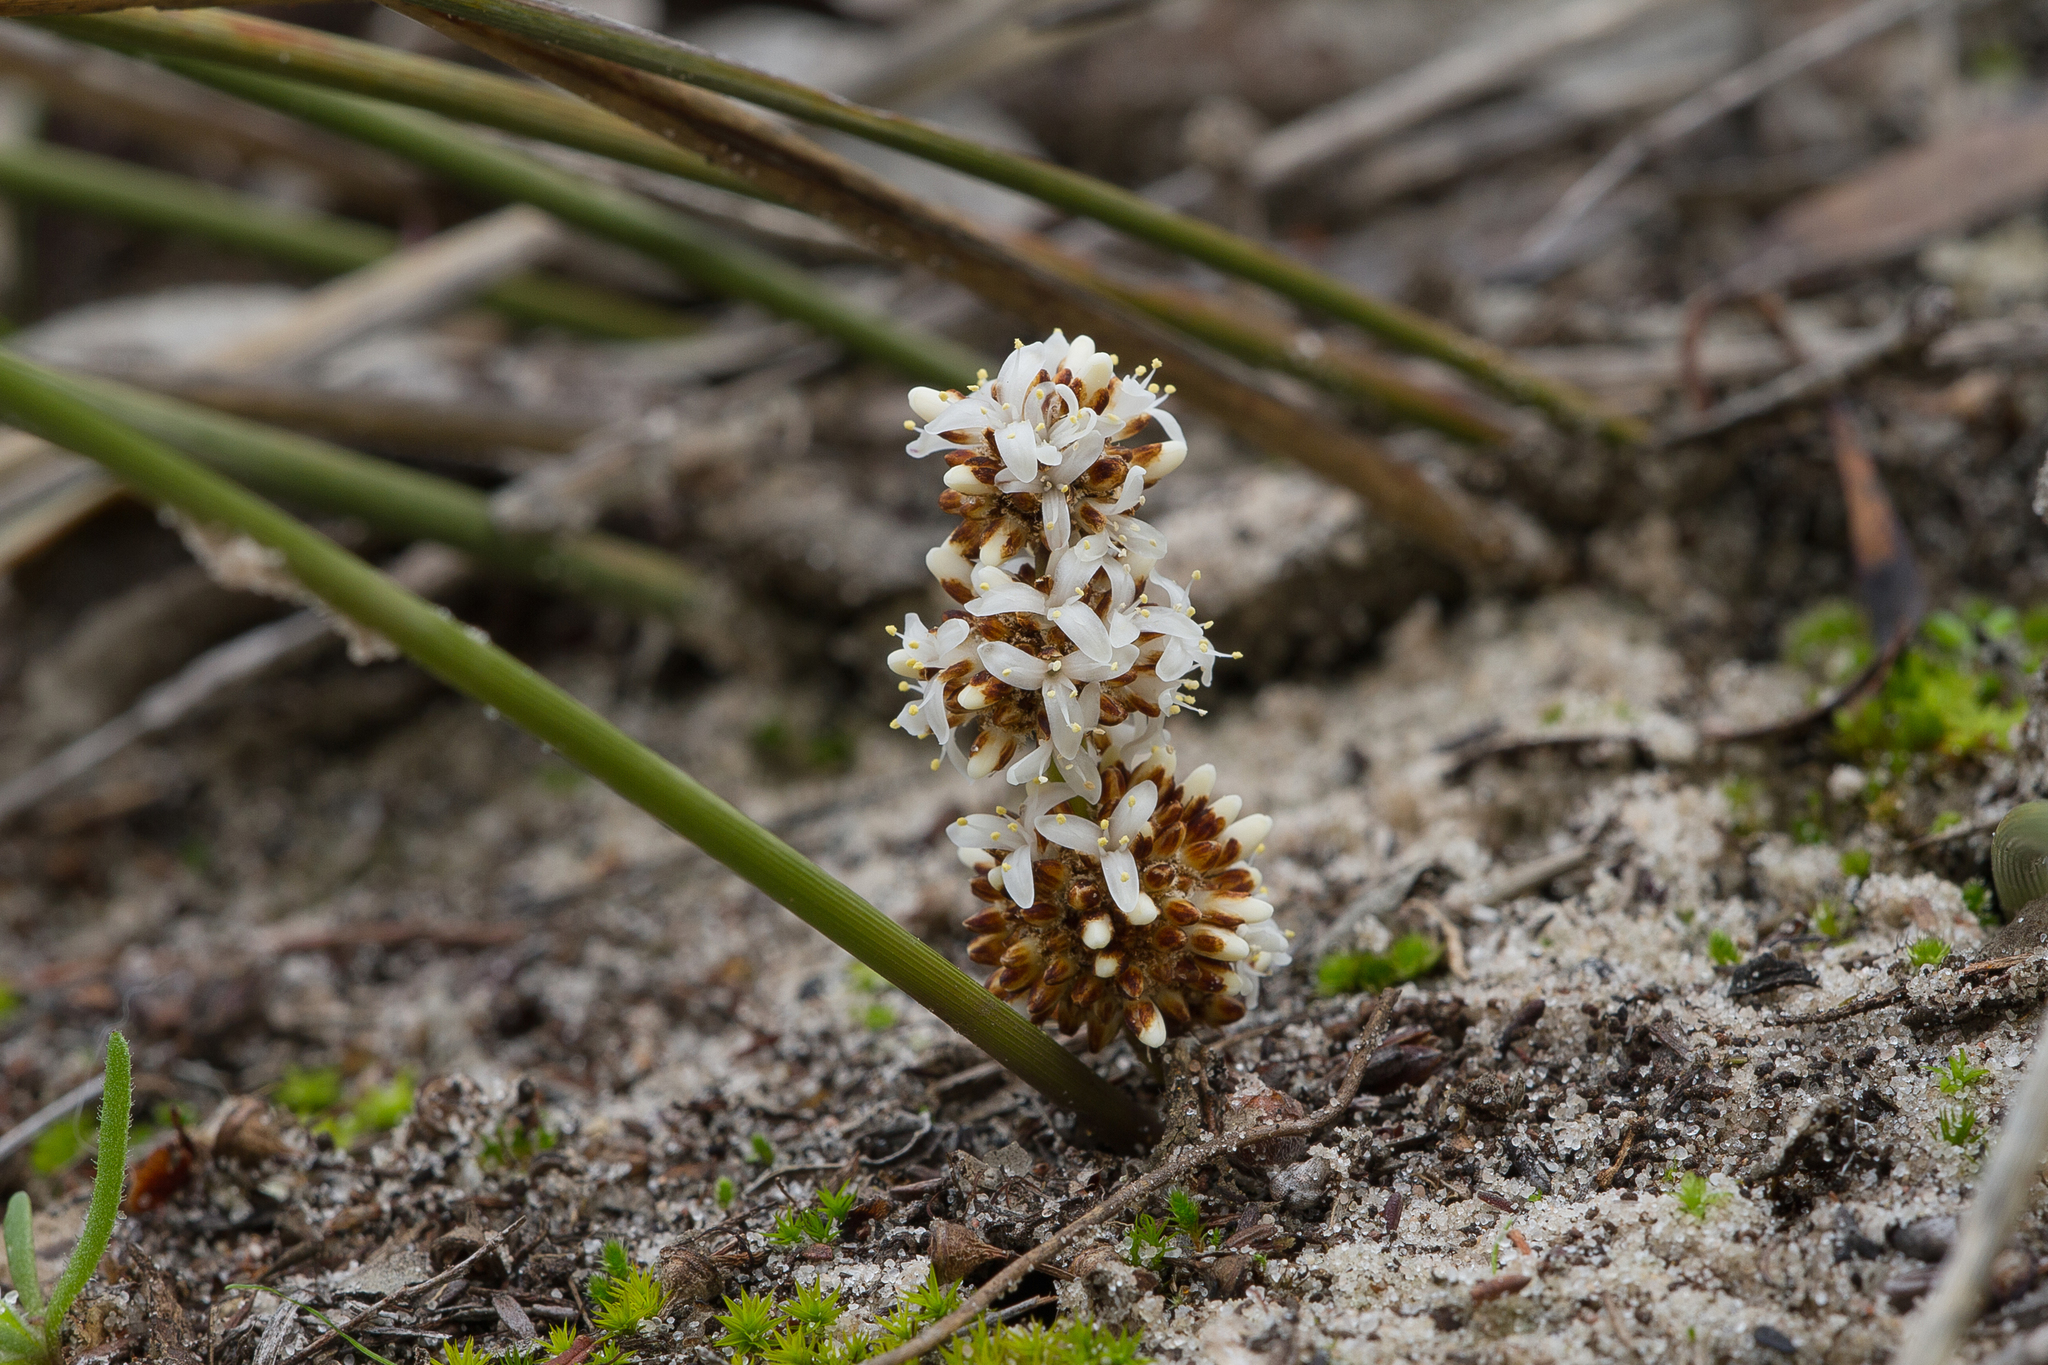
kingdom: Plantae
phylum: Tracheophyta
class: Liliopsida
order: Asparagales
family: Asparagaceae
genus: Lomandra
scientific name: Lomandra juncea
